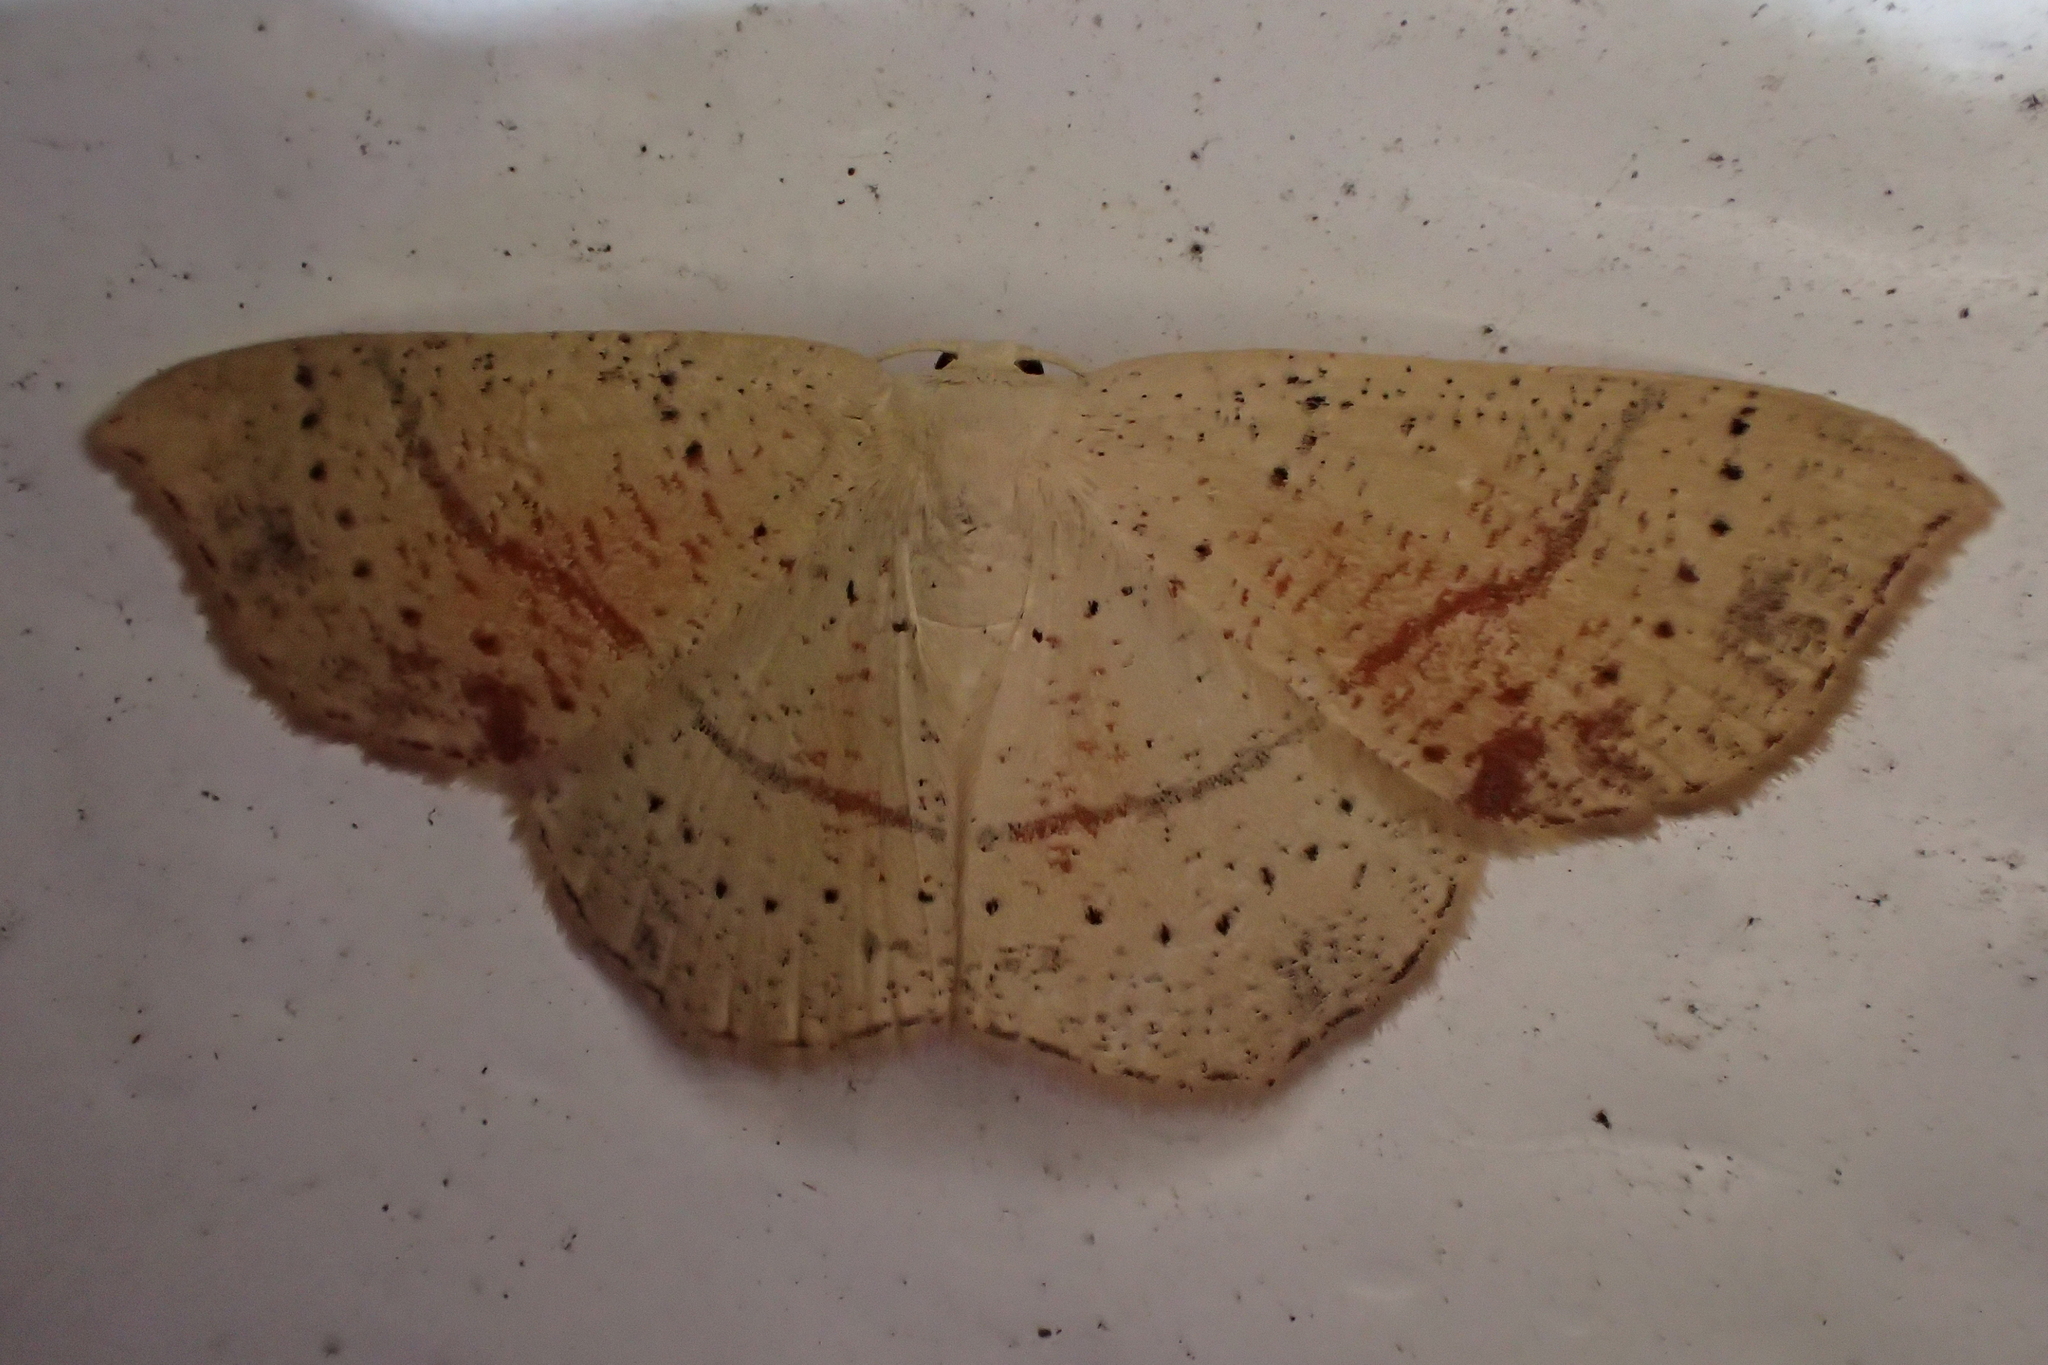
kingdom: Animalia
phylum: Arthropoda
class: Insecta
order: Lepidoptera
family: Geometridae
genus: Cyclophora
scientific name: Cyclophora punctaria
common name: Maiden's blush
